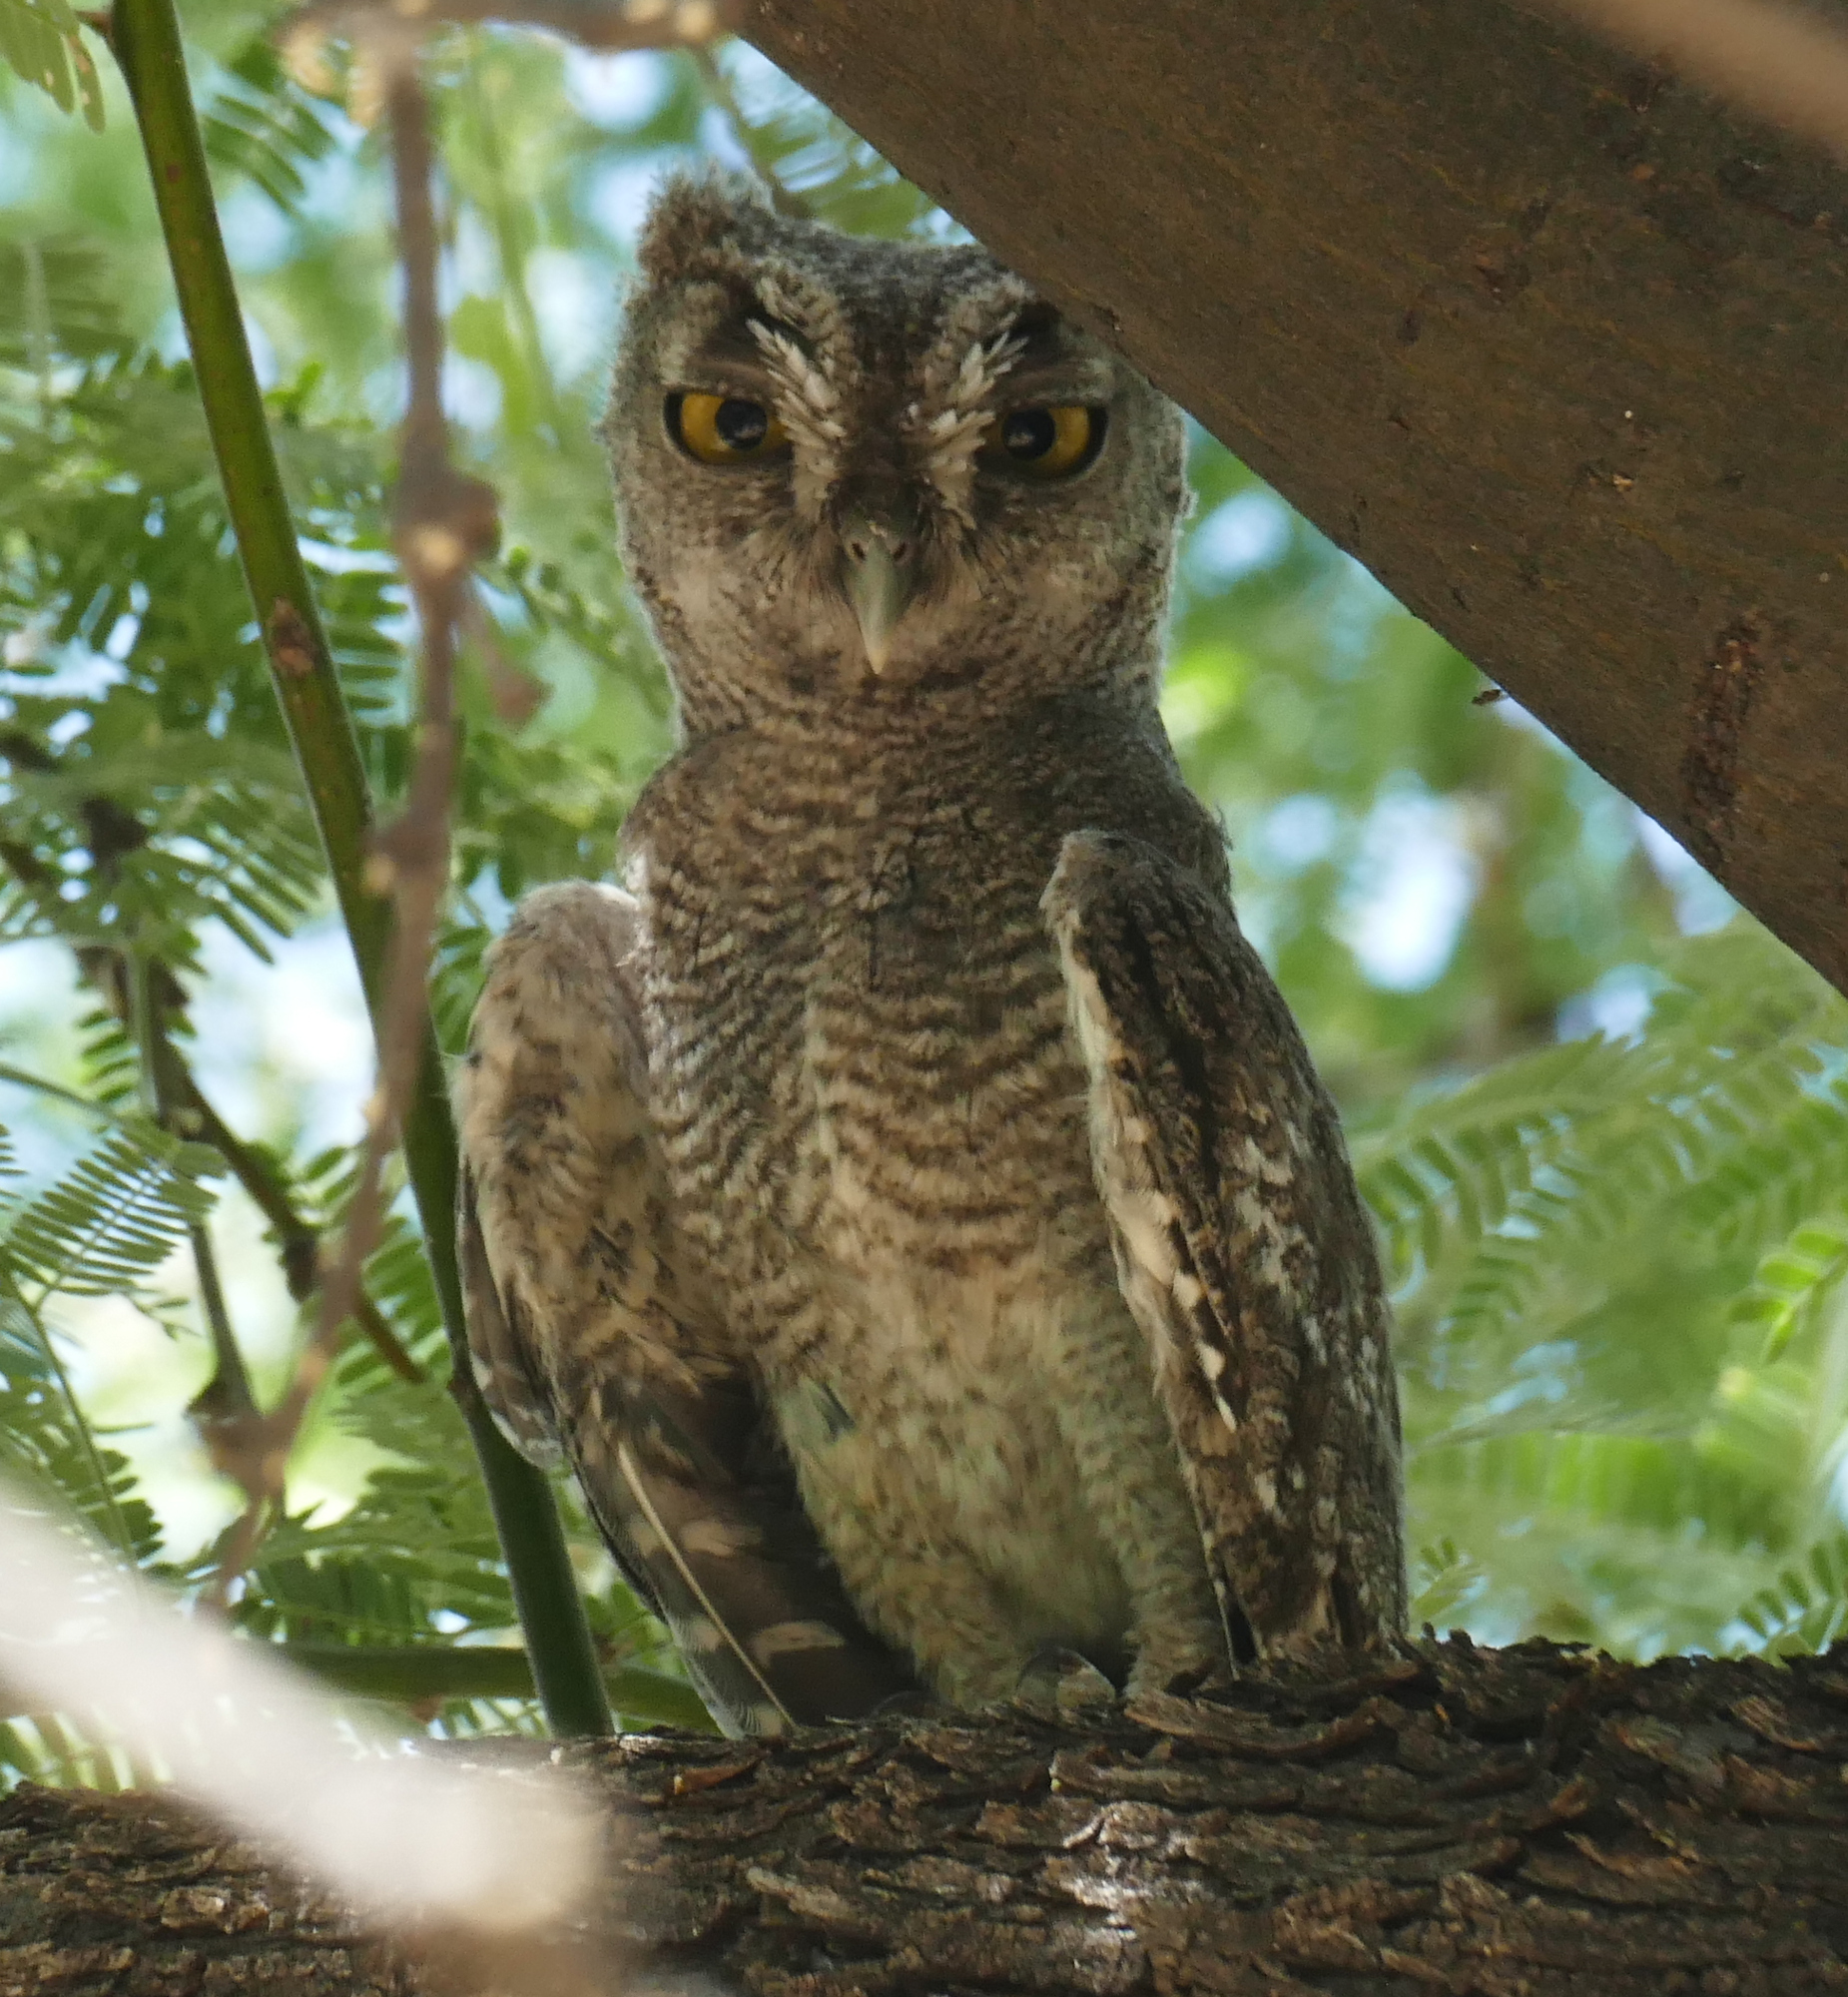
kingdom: Animalia
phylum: Chordata
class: Aves
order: Strigiformes
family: Strigidae
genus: Megascops
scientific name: Megascops kennicottii
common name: Western screech-owl
